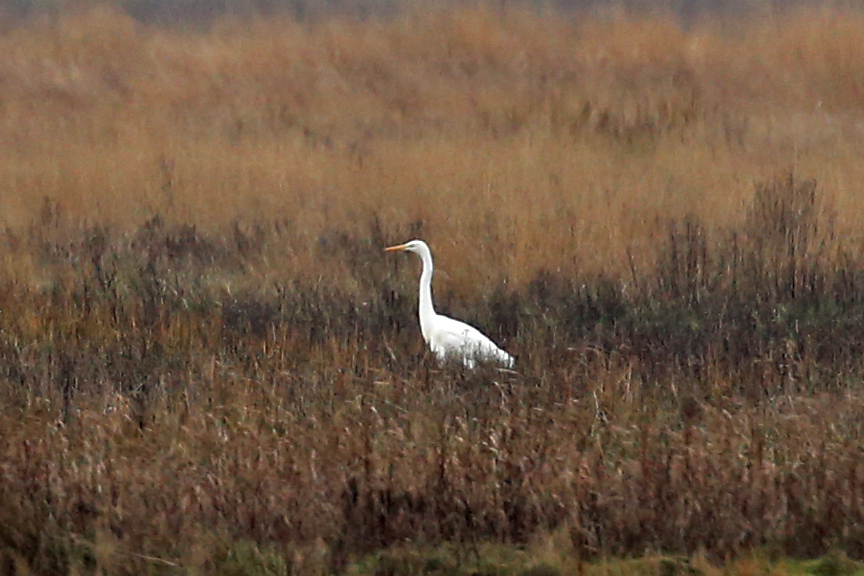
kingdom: Animalia
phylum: Chordata
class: Aves
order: Pelecaniformes
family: Ardeidae
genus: Ardea
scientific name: Ardea alba
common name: Great egret
